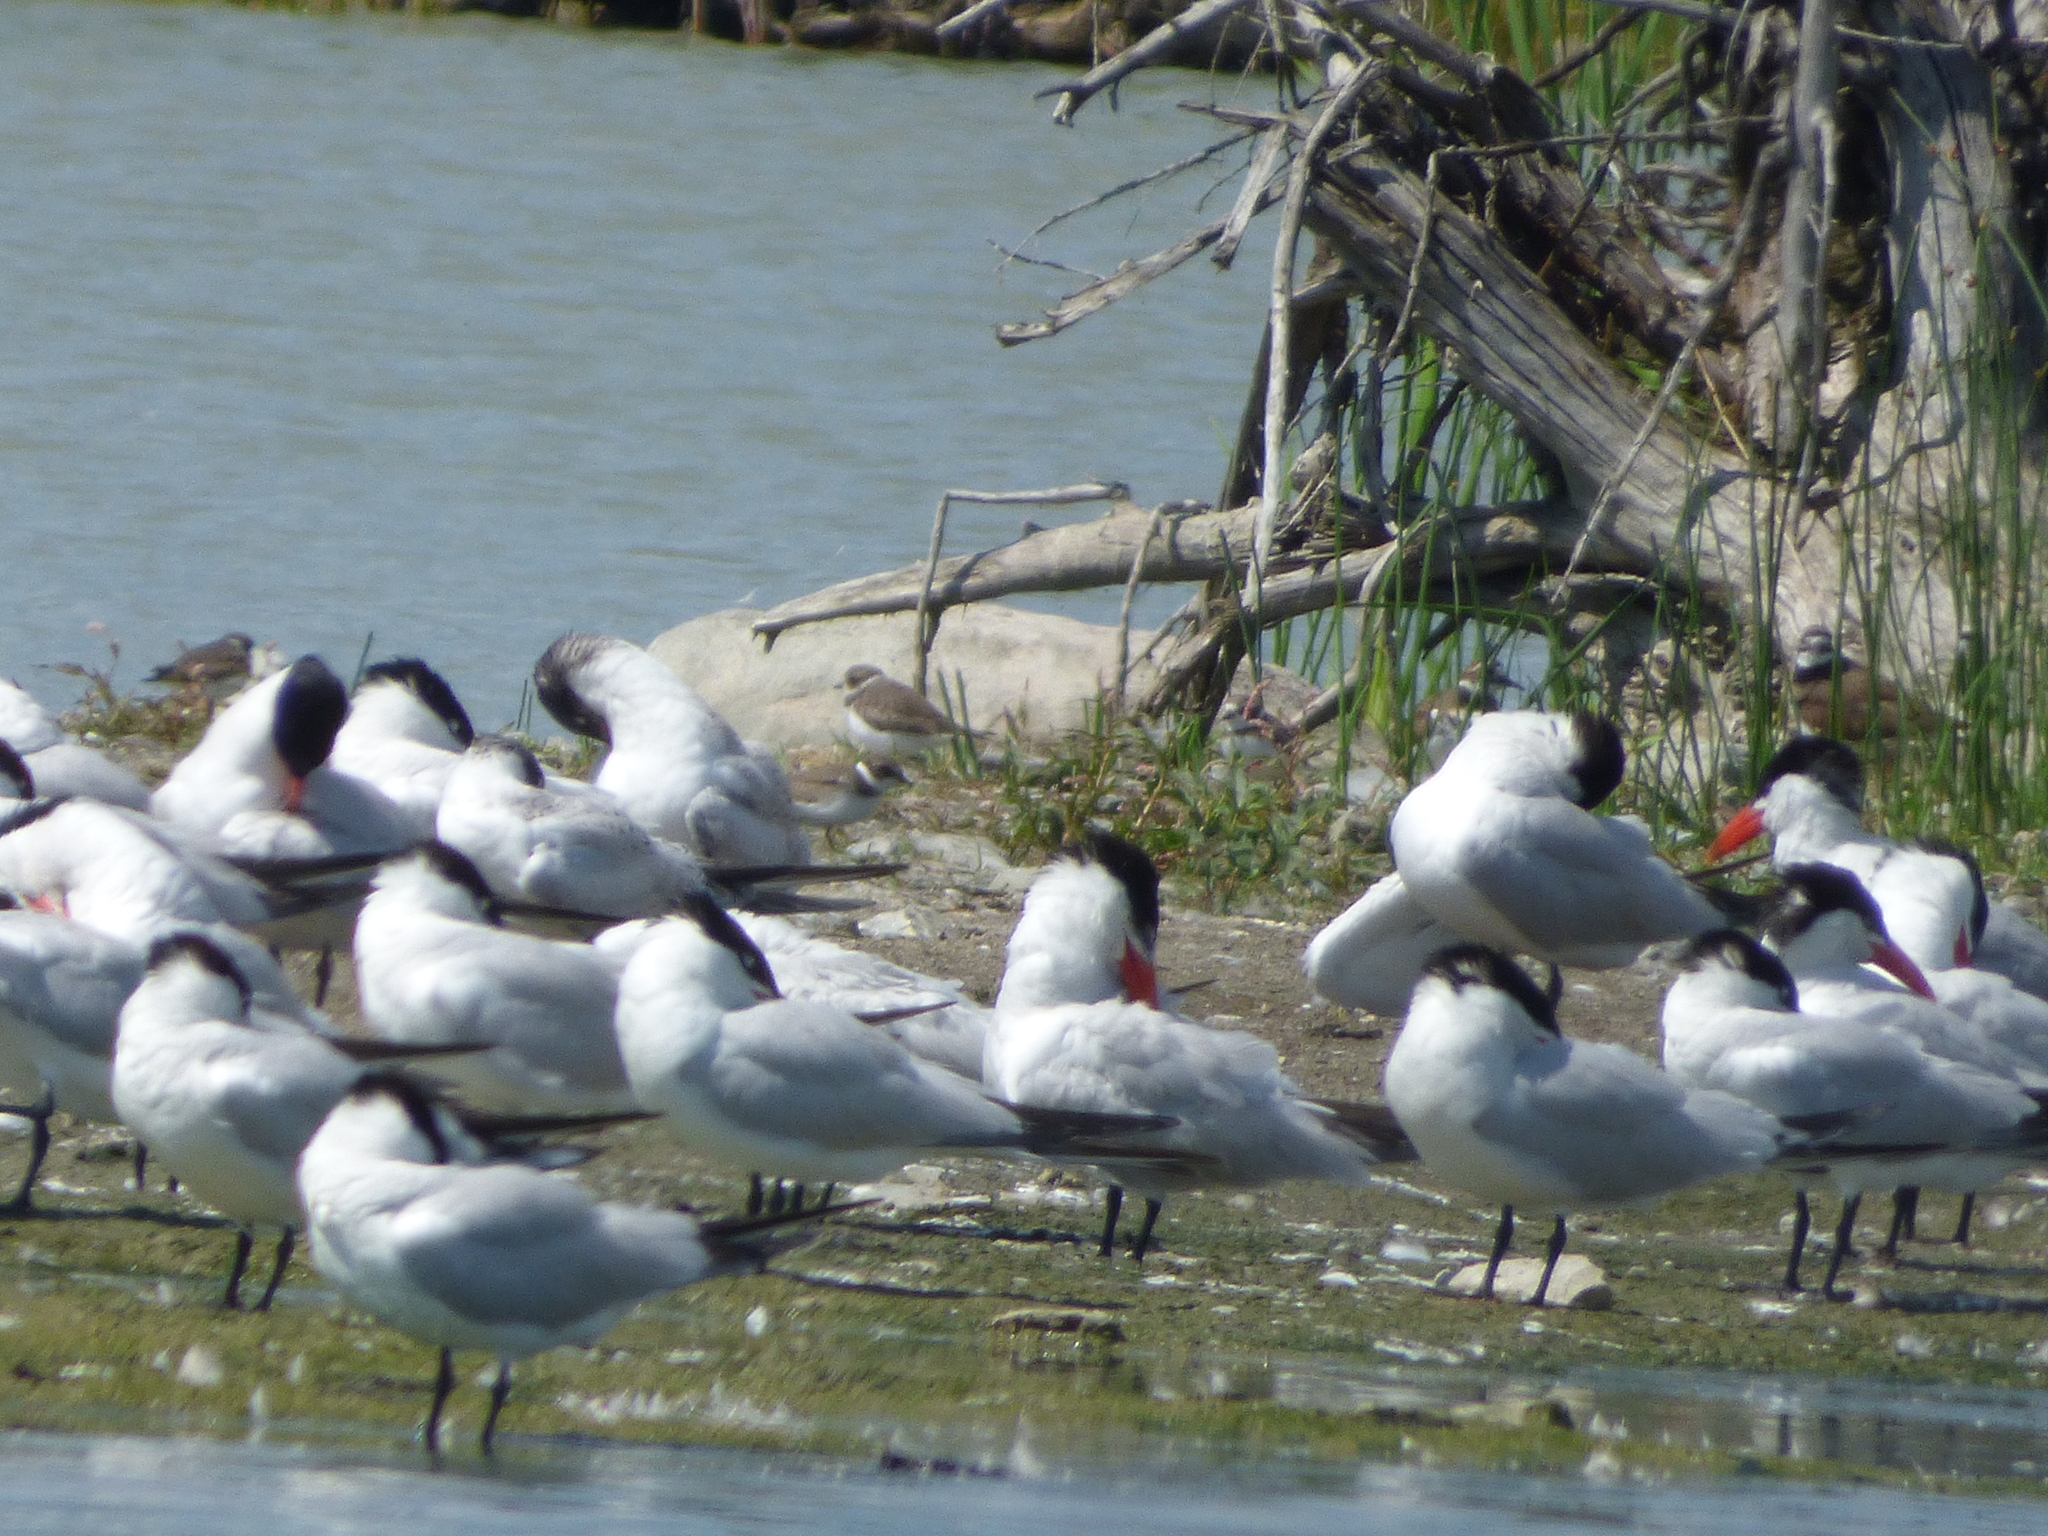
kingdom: Animalia
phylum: Chordata
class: Aves
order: Charadriiformes
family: Charadriidae
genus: Charadrius
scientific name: Charadrius semipalmatus
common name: Semipalmated plover
